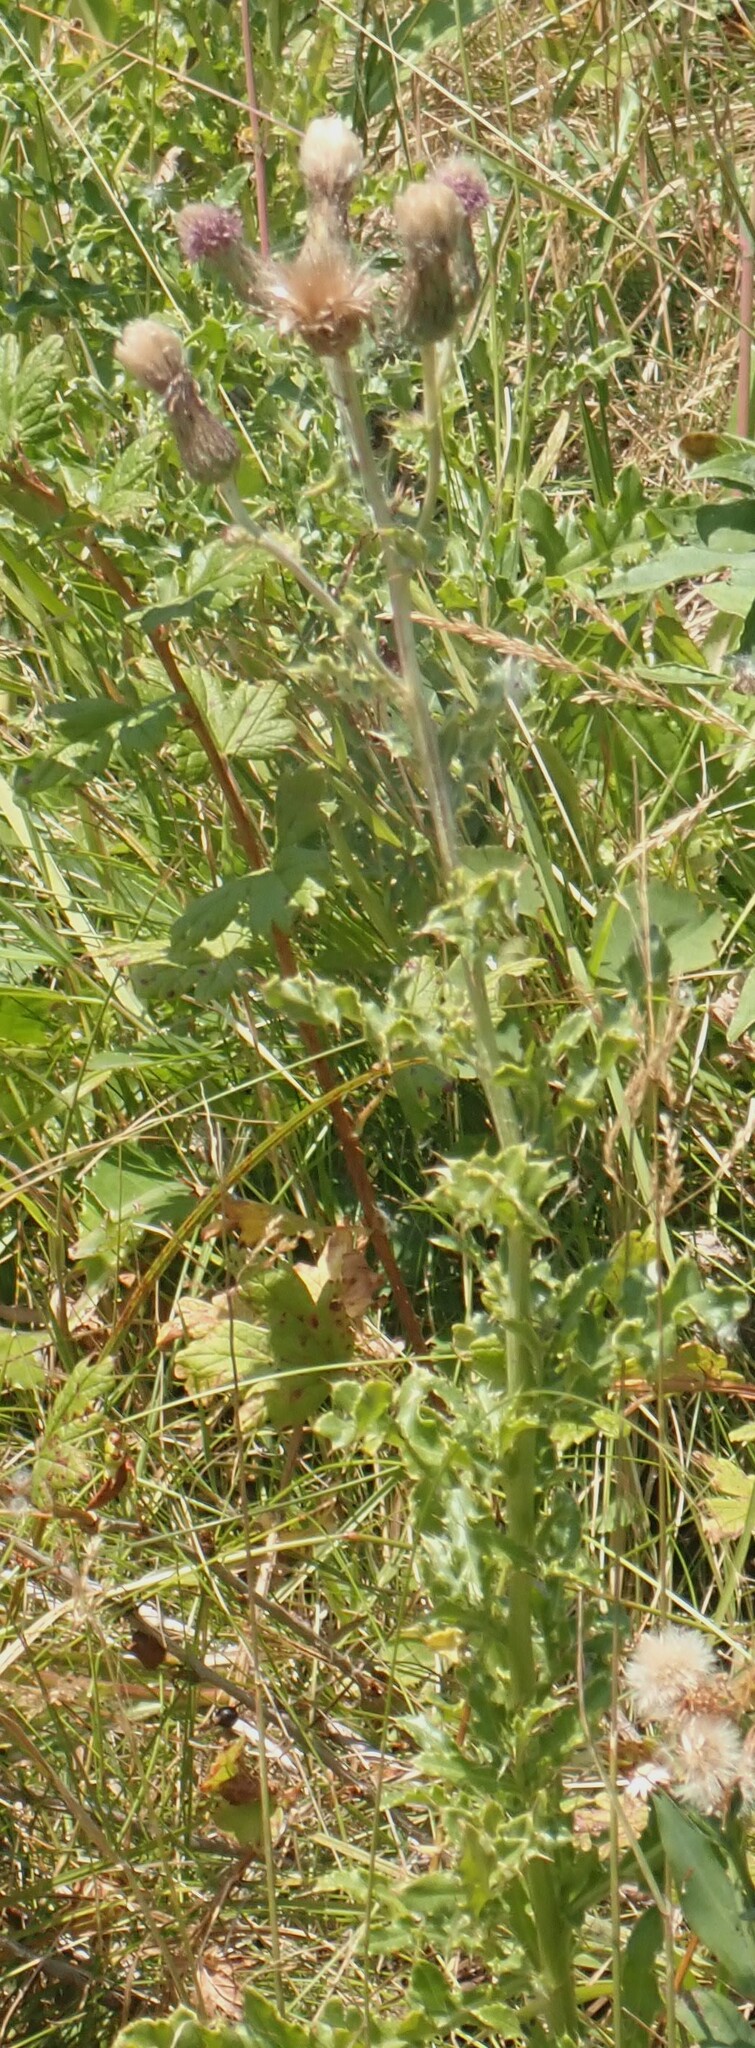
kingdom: Plantae
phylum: Tracheophyta
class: Magnoliopsida
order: Asterales
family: Asteraceae
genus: Cirsium
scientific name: Cirsium arvense
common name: Creeping thistle
